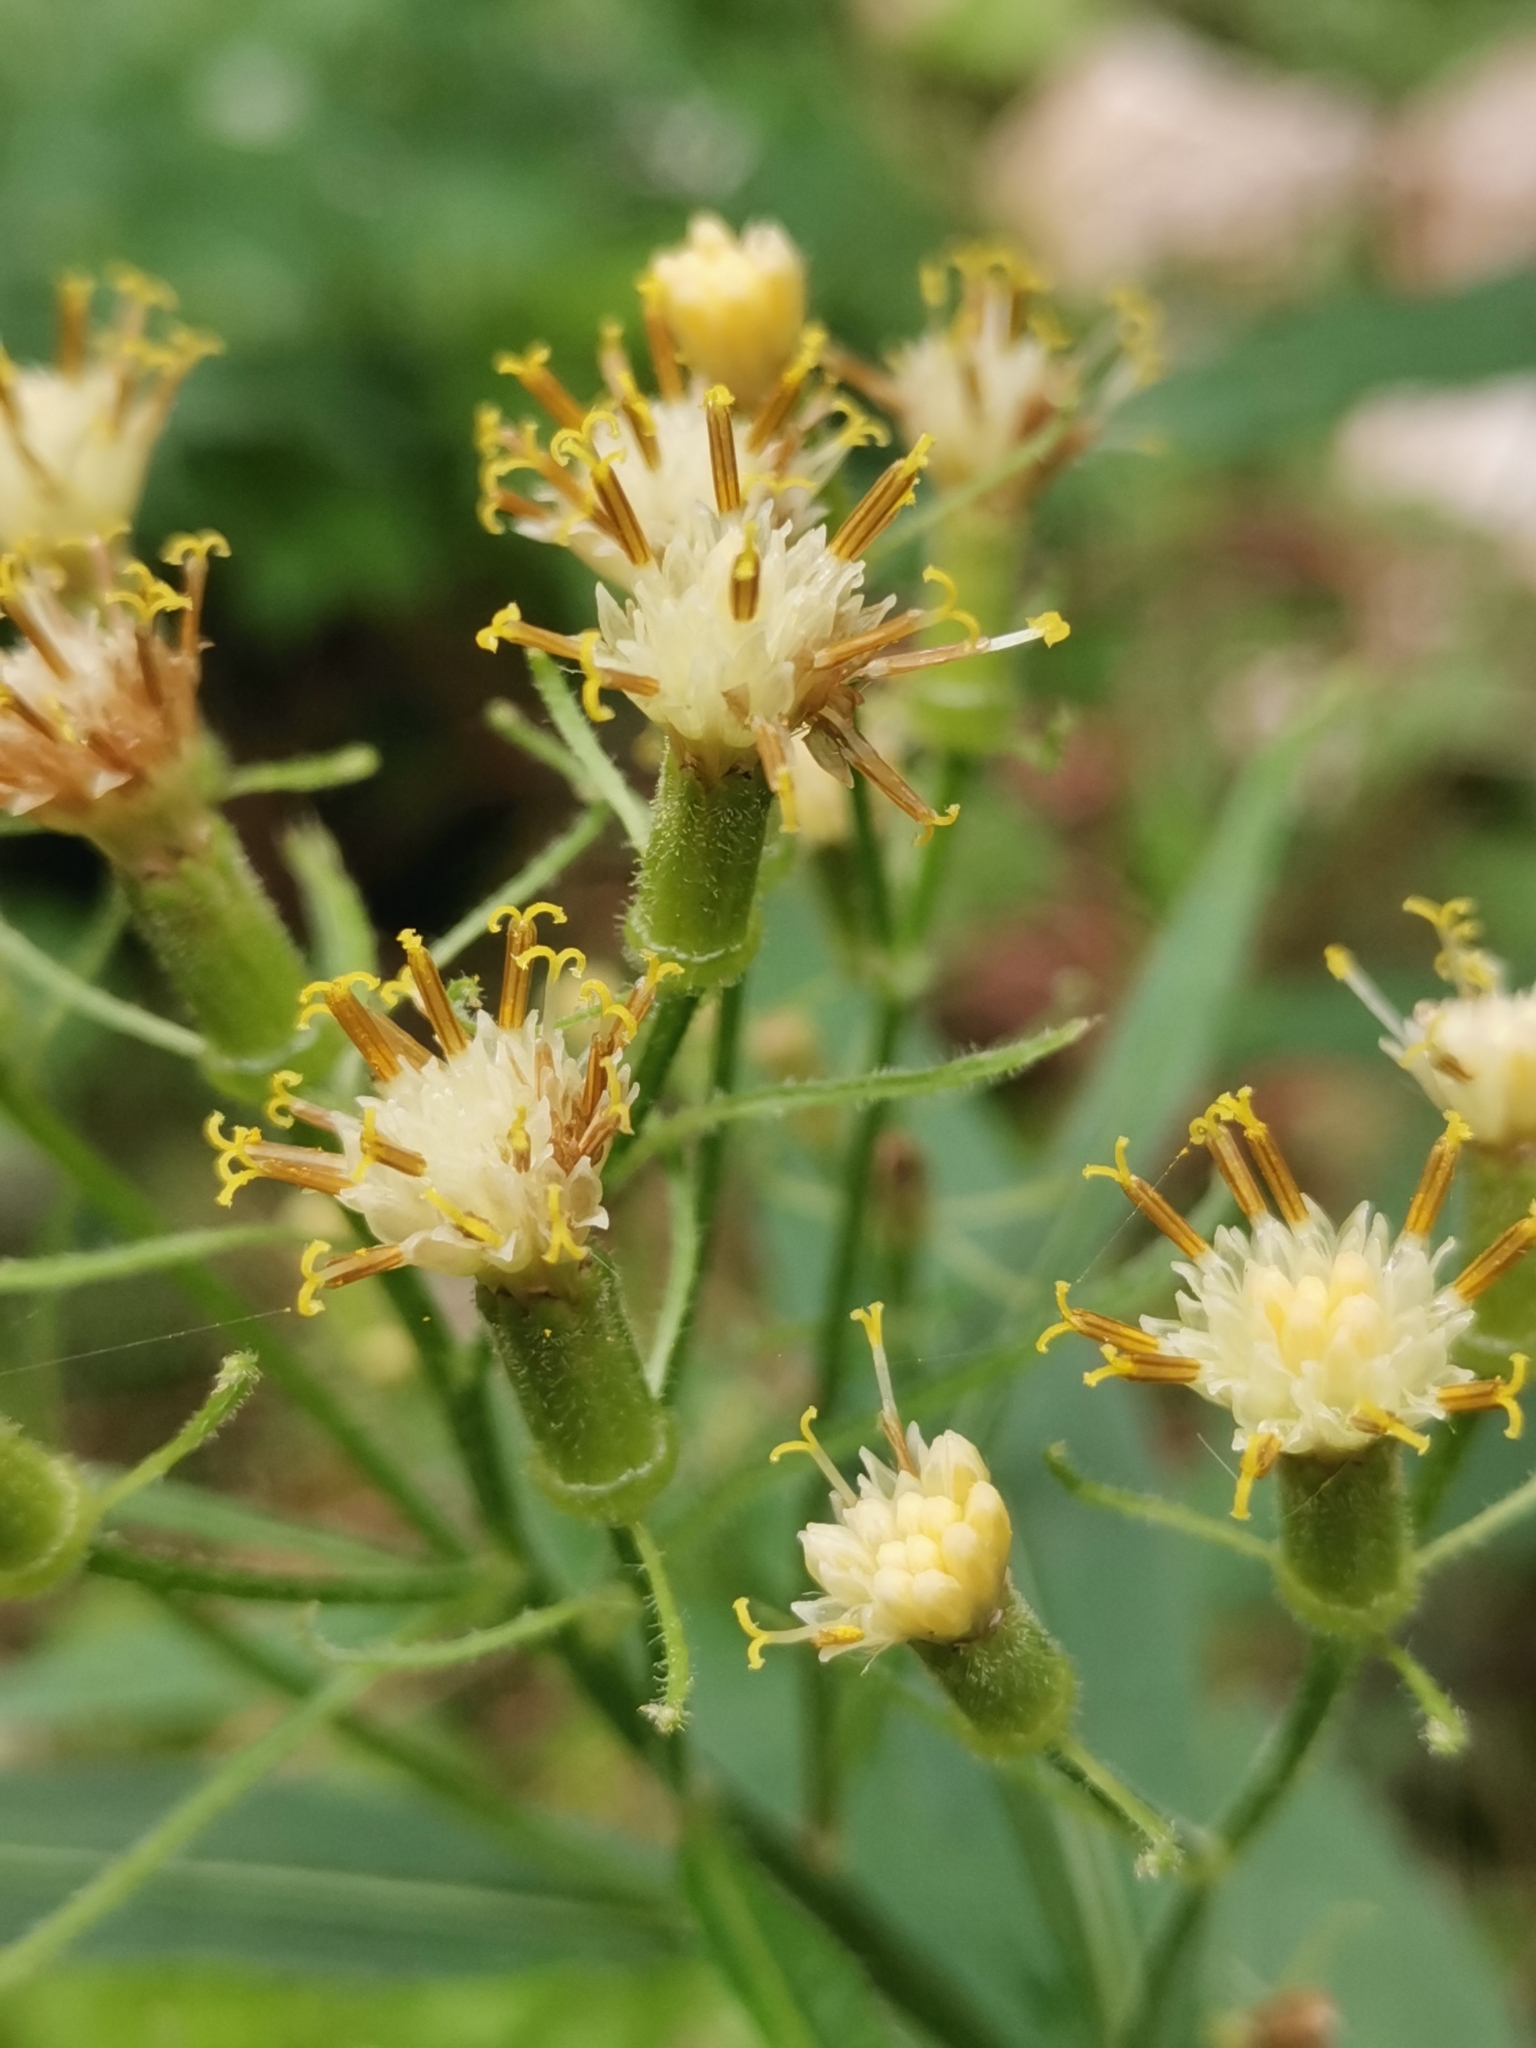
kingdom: Plantae
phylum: Tracheophyta
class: Magnoliopsida
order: Asterales
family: Asteraceae
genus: Senecio
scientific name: Senecio cacaliaster
